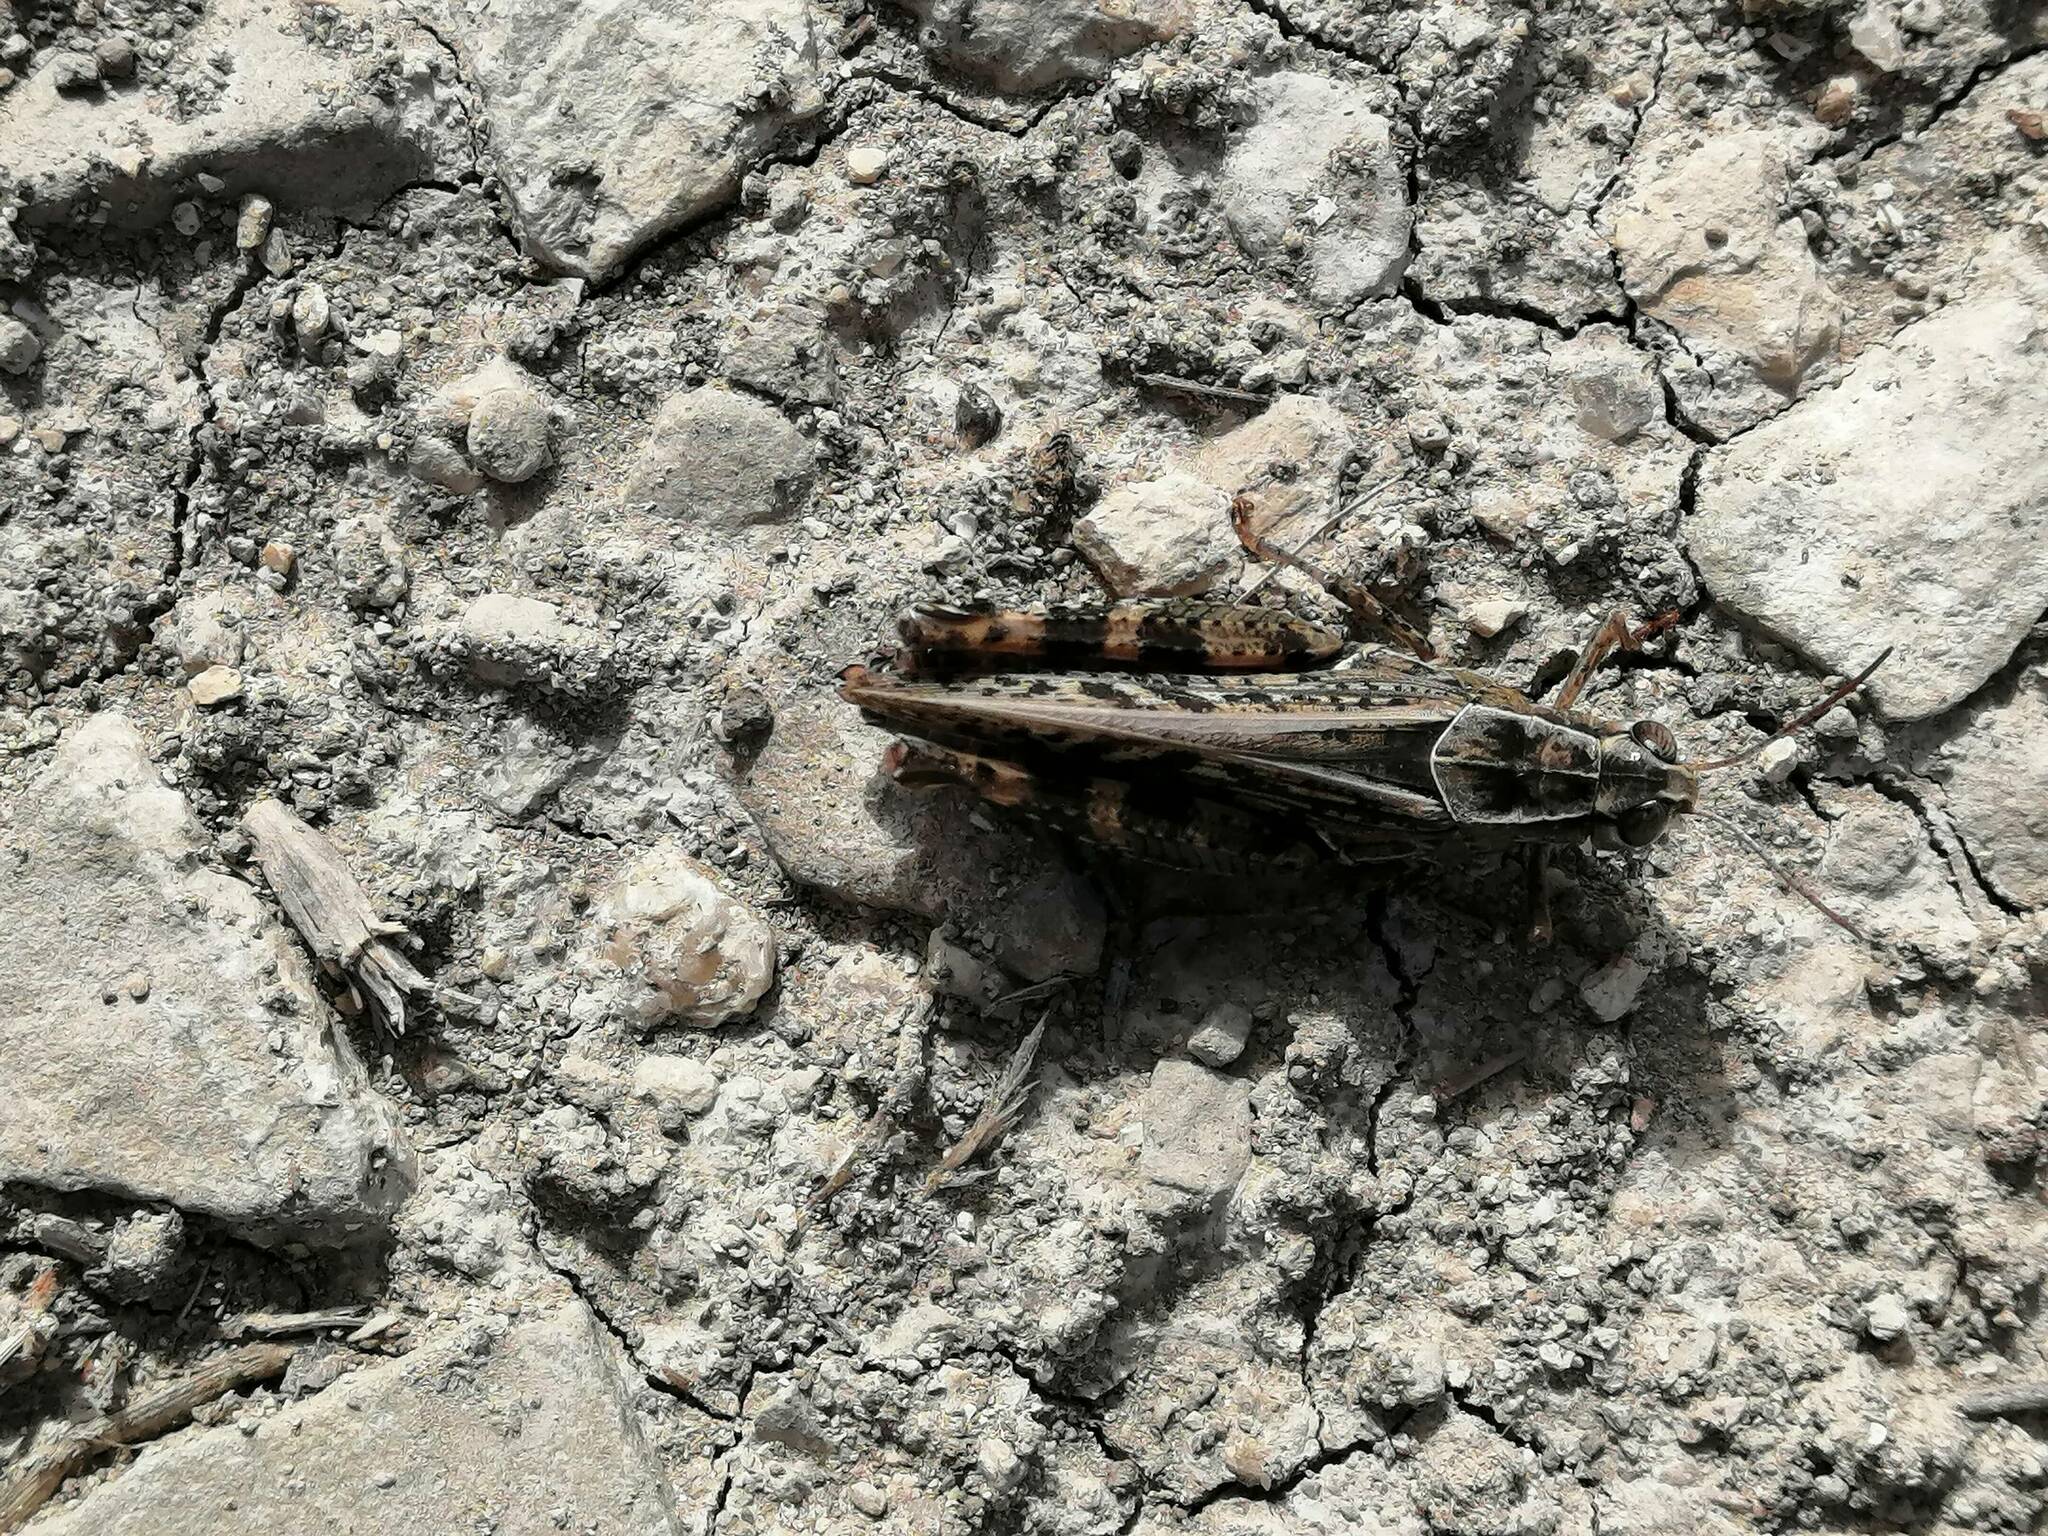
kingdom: Animalia
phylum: Arthropoda
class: Insecta
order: Orthoptera
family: Acrididae
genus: Calliptamus
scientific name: Calliptamus italicus
